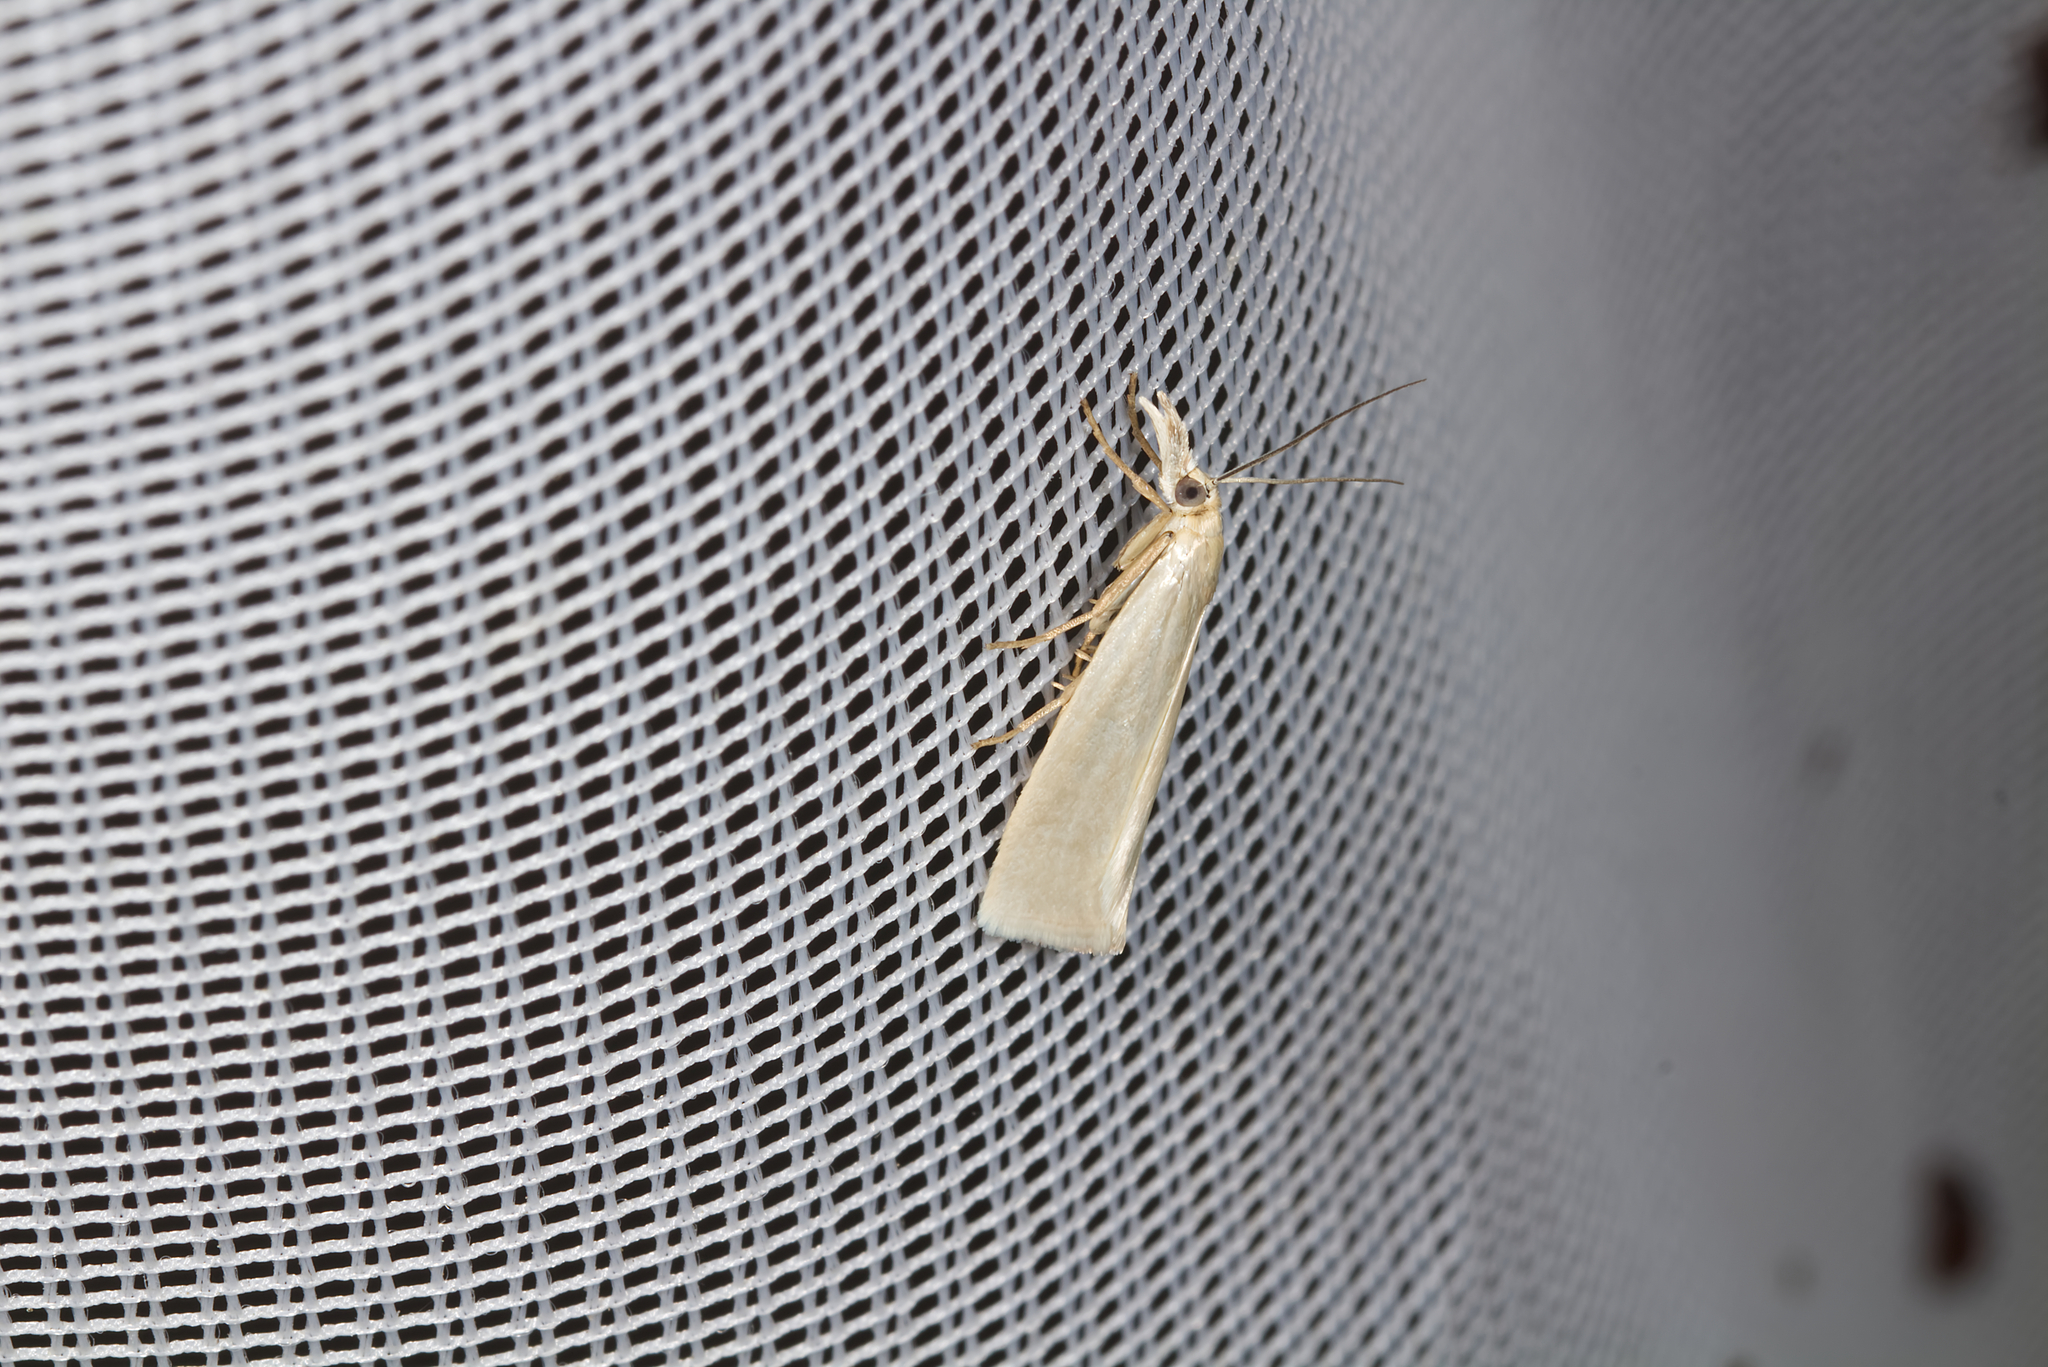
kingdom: Animalia
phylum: Arthropoda
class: Insecta
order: Lepidoptera
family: Crambidae
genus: Crambus
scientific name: Crambus perlellus
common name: Yellow satin veneer
